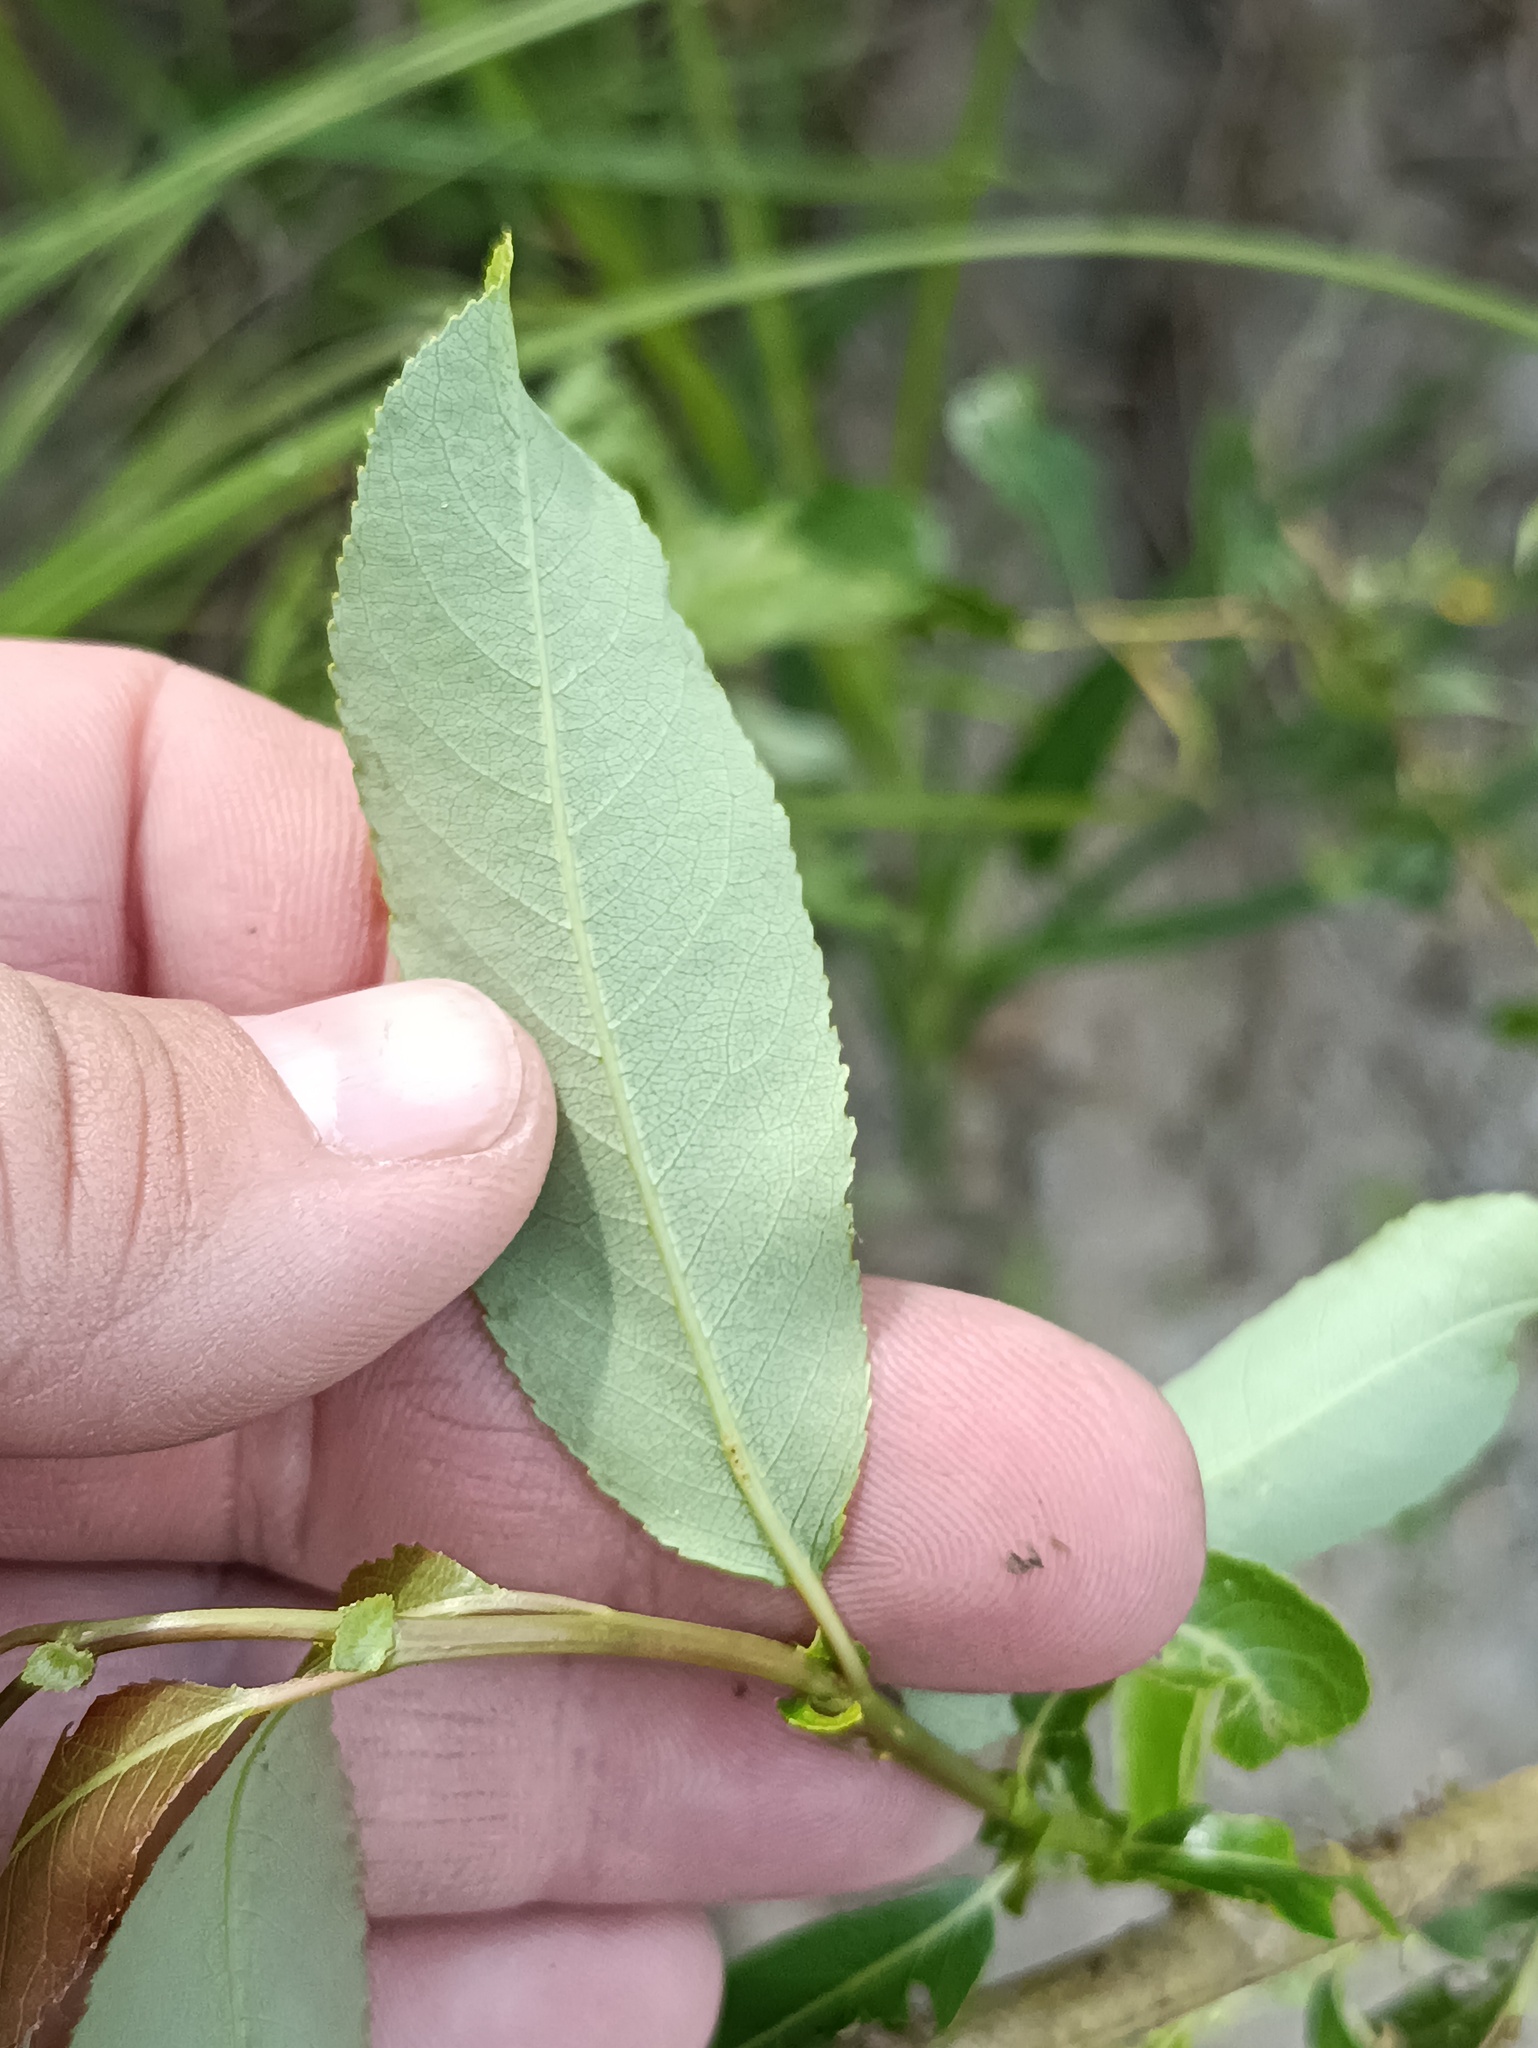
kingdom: Plantae
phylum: Tracheophyta
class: Magnoliopsida
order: Malpighiales
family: Salicaceae
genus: Salix
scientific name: Salix triandra
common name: Almond willow
